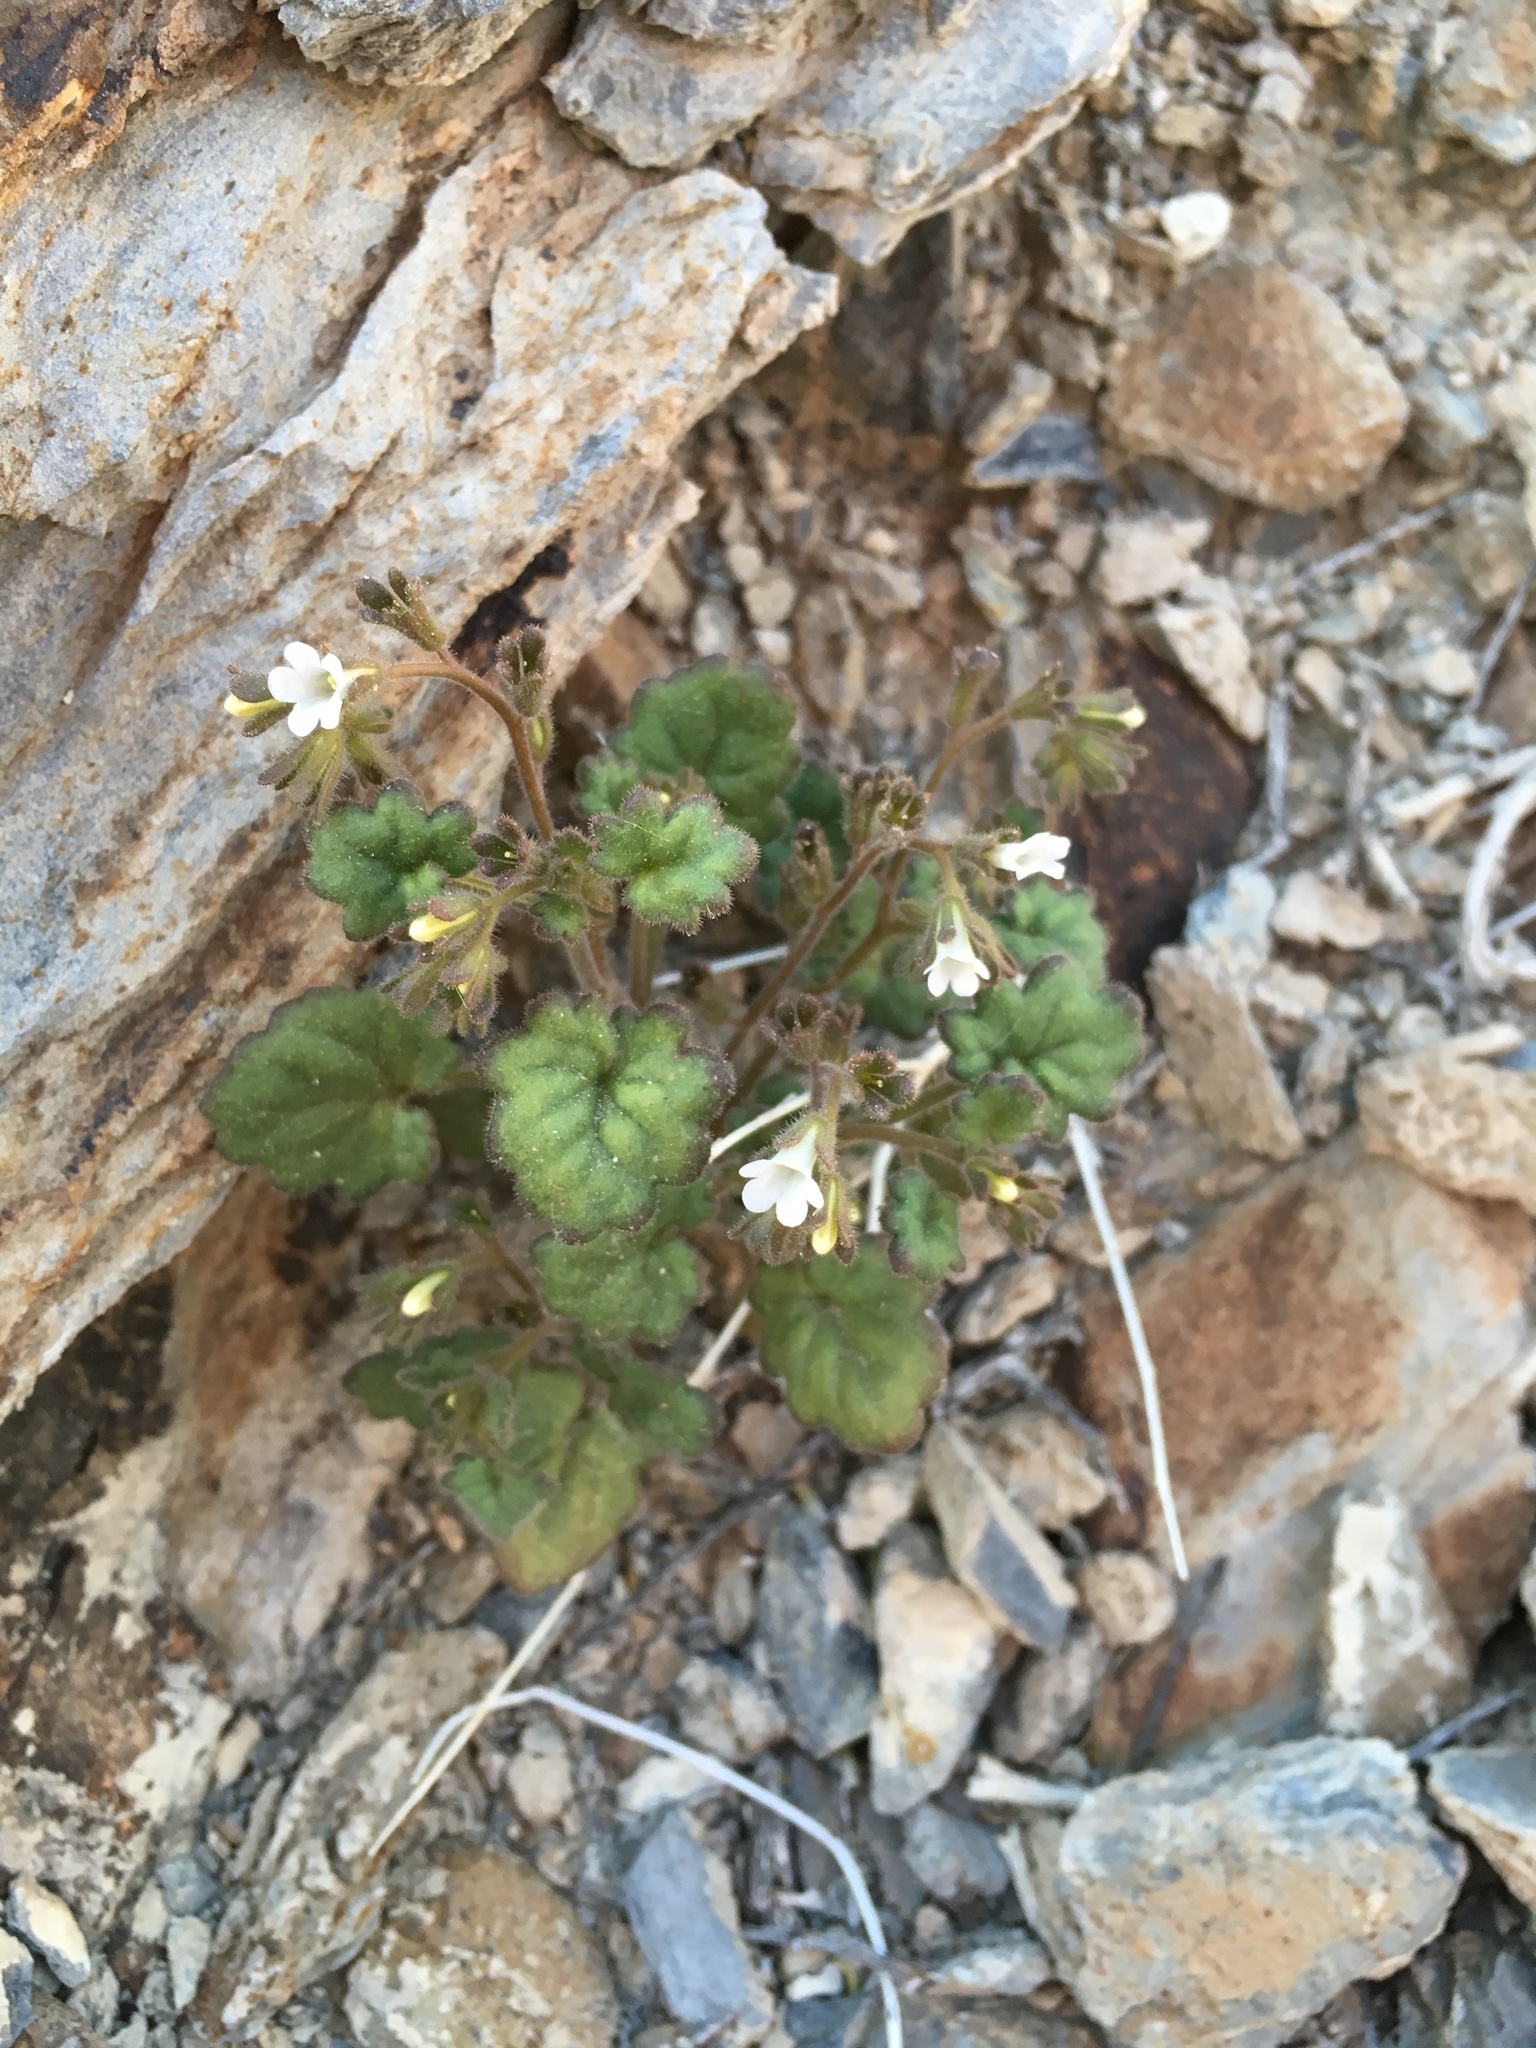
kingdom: Plantae
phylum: Tracheophyta
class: Magnoliopsida
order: Boraginales
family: Hydrophyllaceae
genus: Phacelia
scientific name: Phacelia rotundifolia
